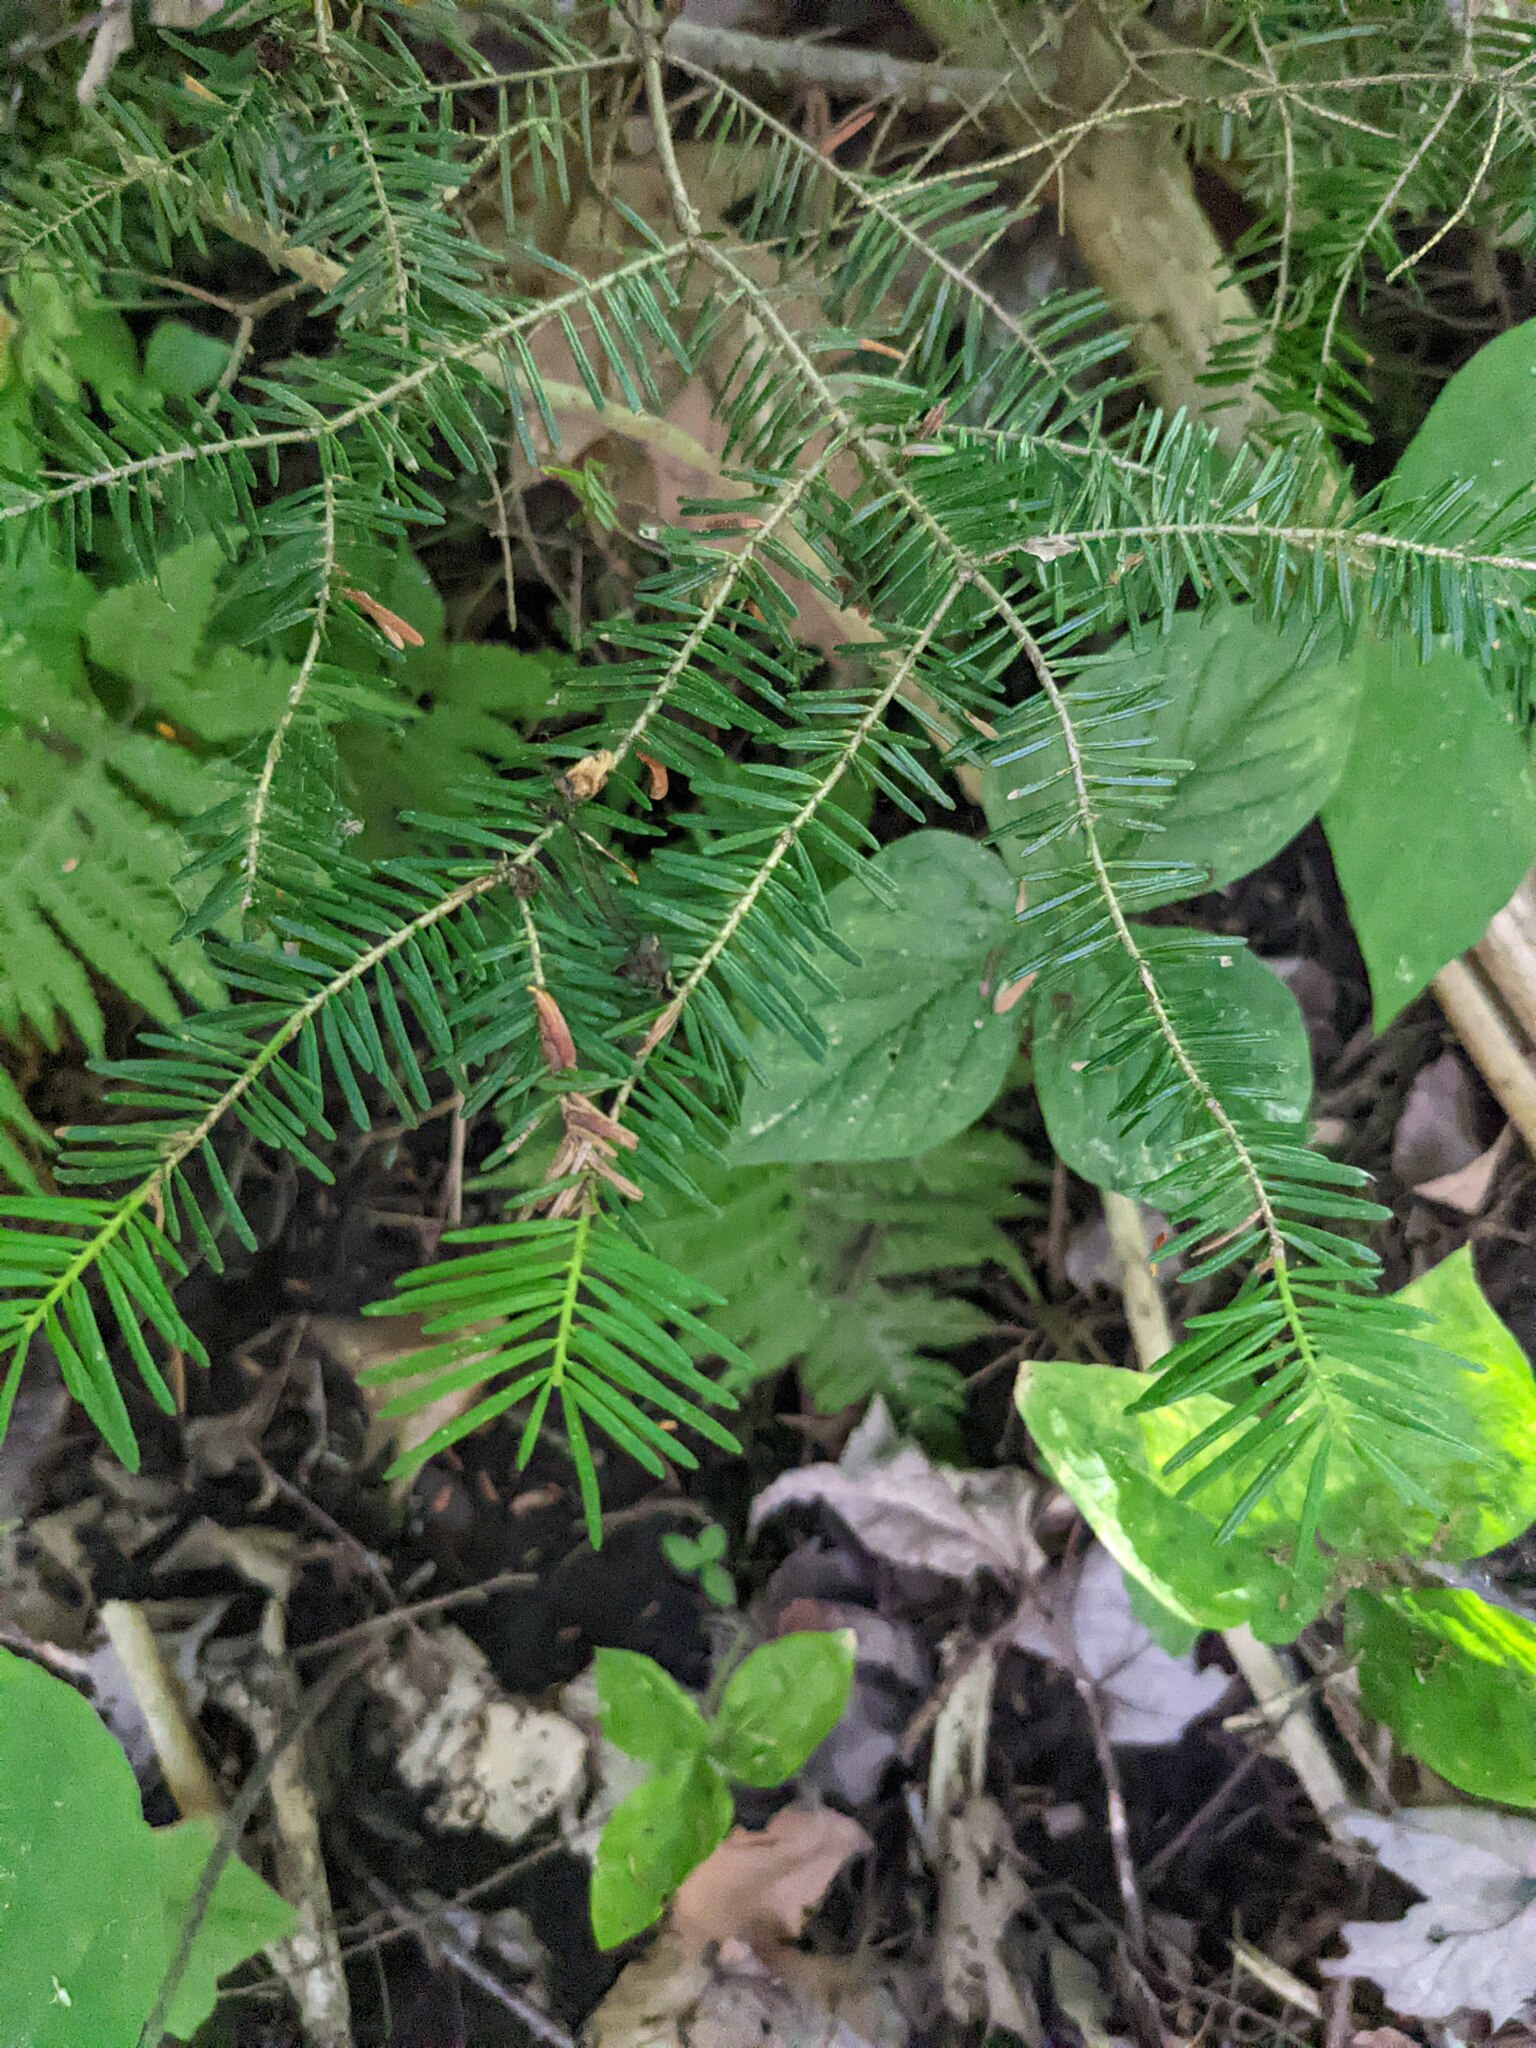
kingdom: Plantae
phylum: Tracheophyta
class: Pinopsida
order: Pinales
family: Pinaceae
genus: Abies
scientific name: Abies balsamea
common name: Balsam fir
